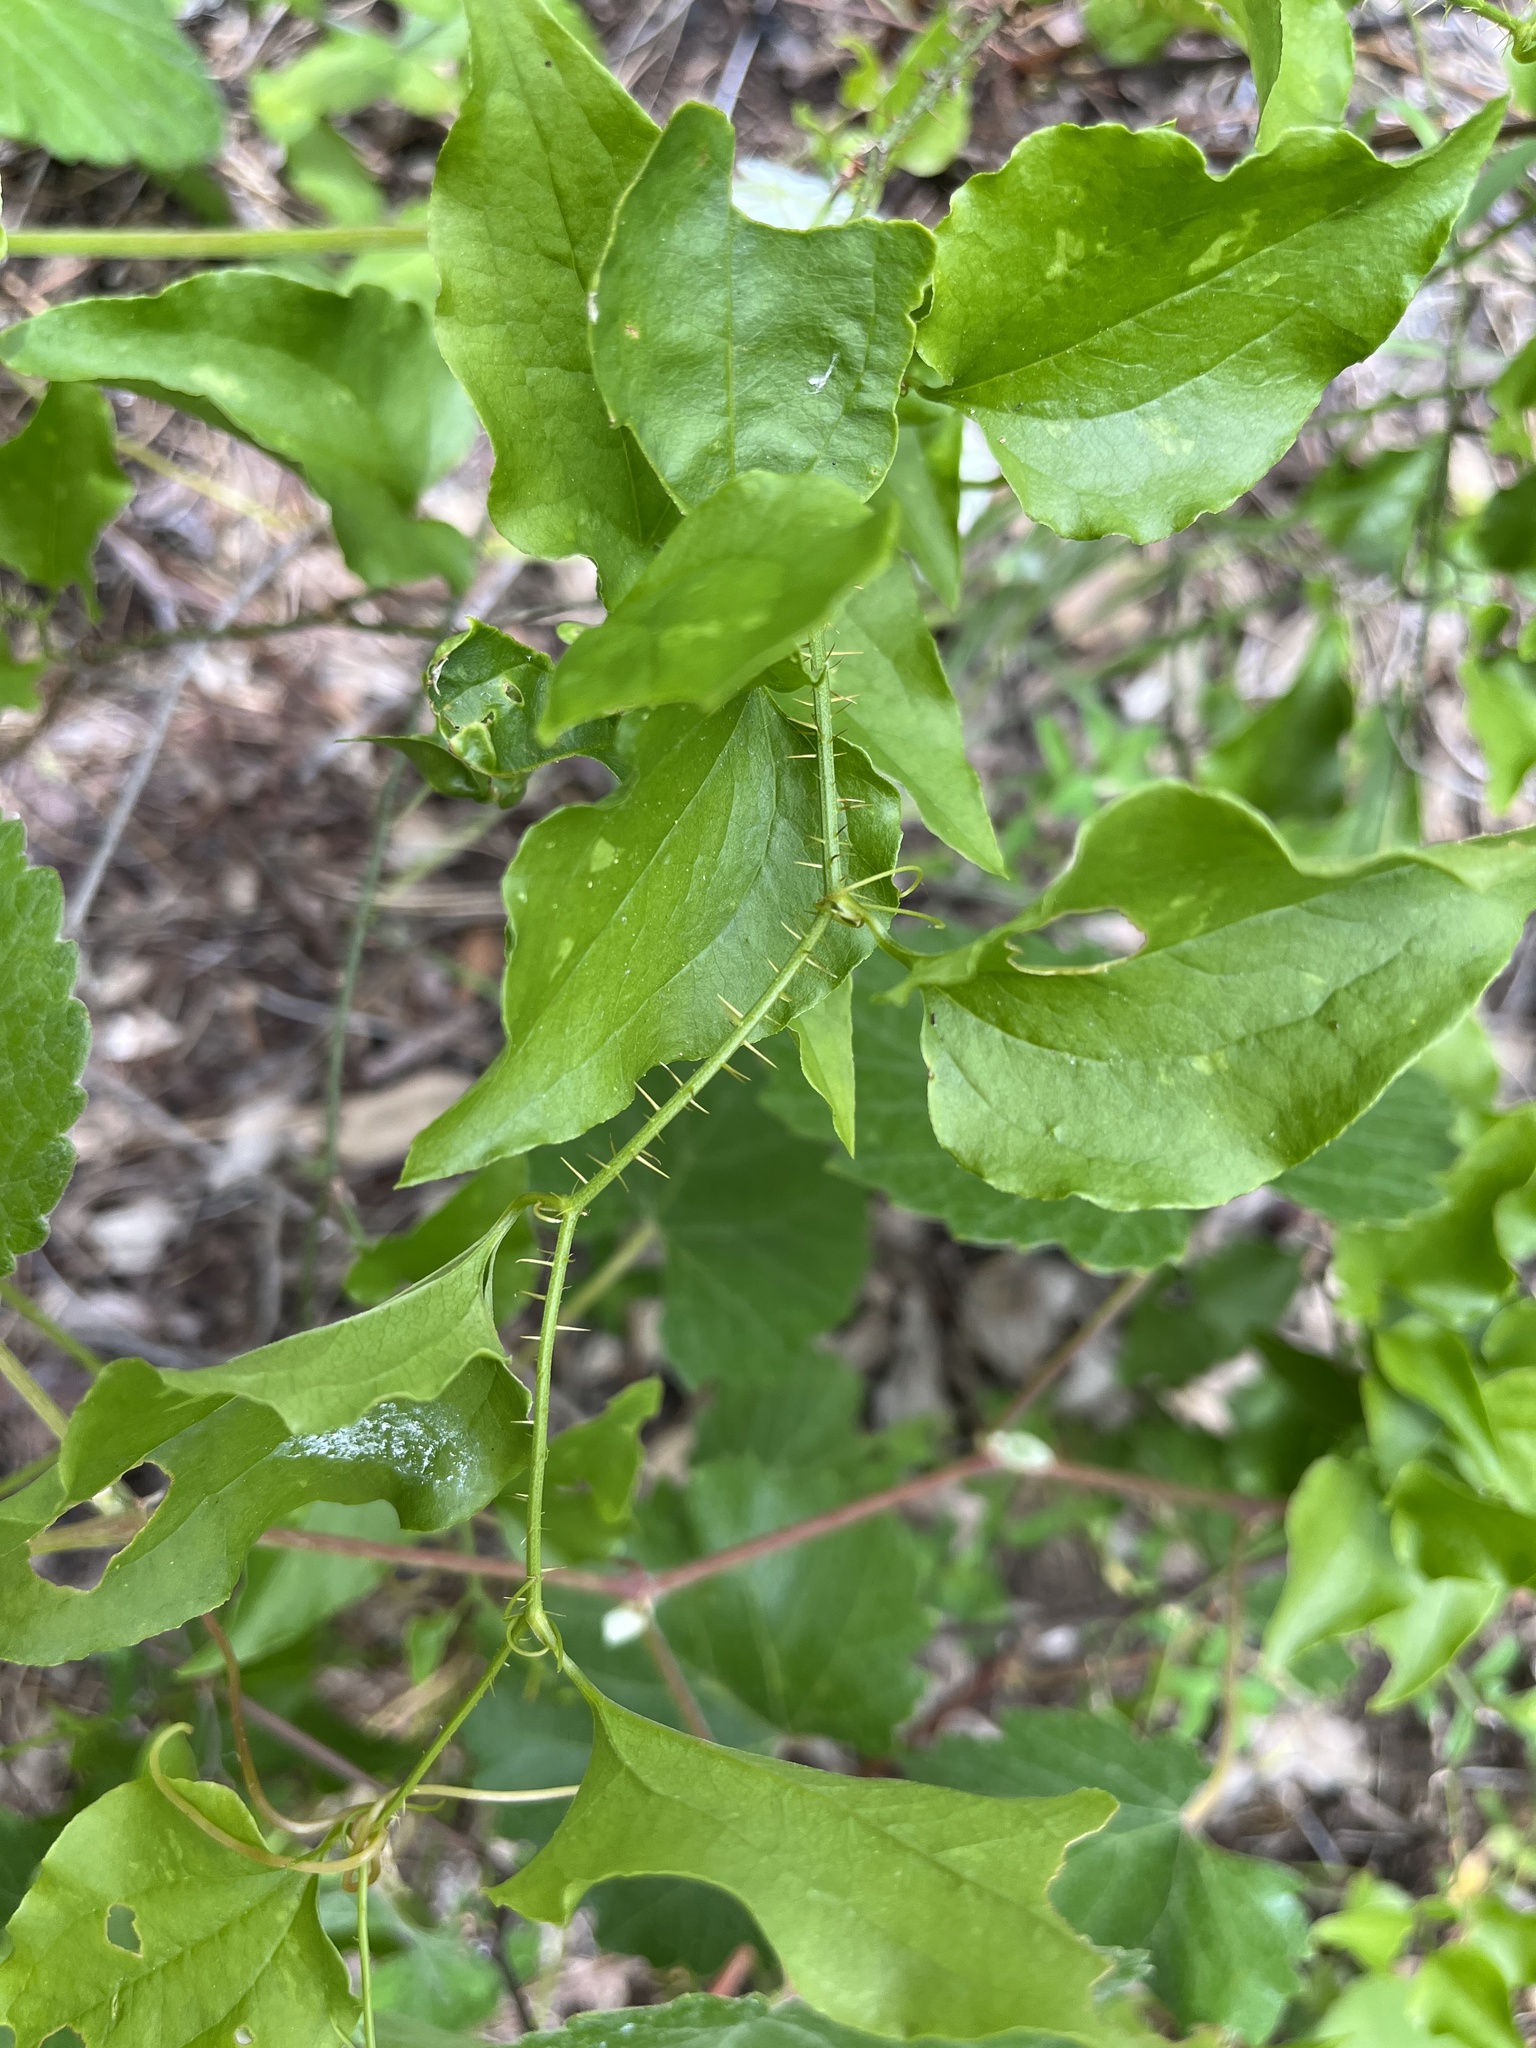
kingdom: Plantae
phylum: Tracheophyta
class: Liliopsida
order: Liliales
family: Smilacaceae
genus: Smilax
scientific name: Smilax californica
